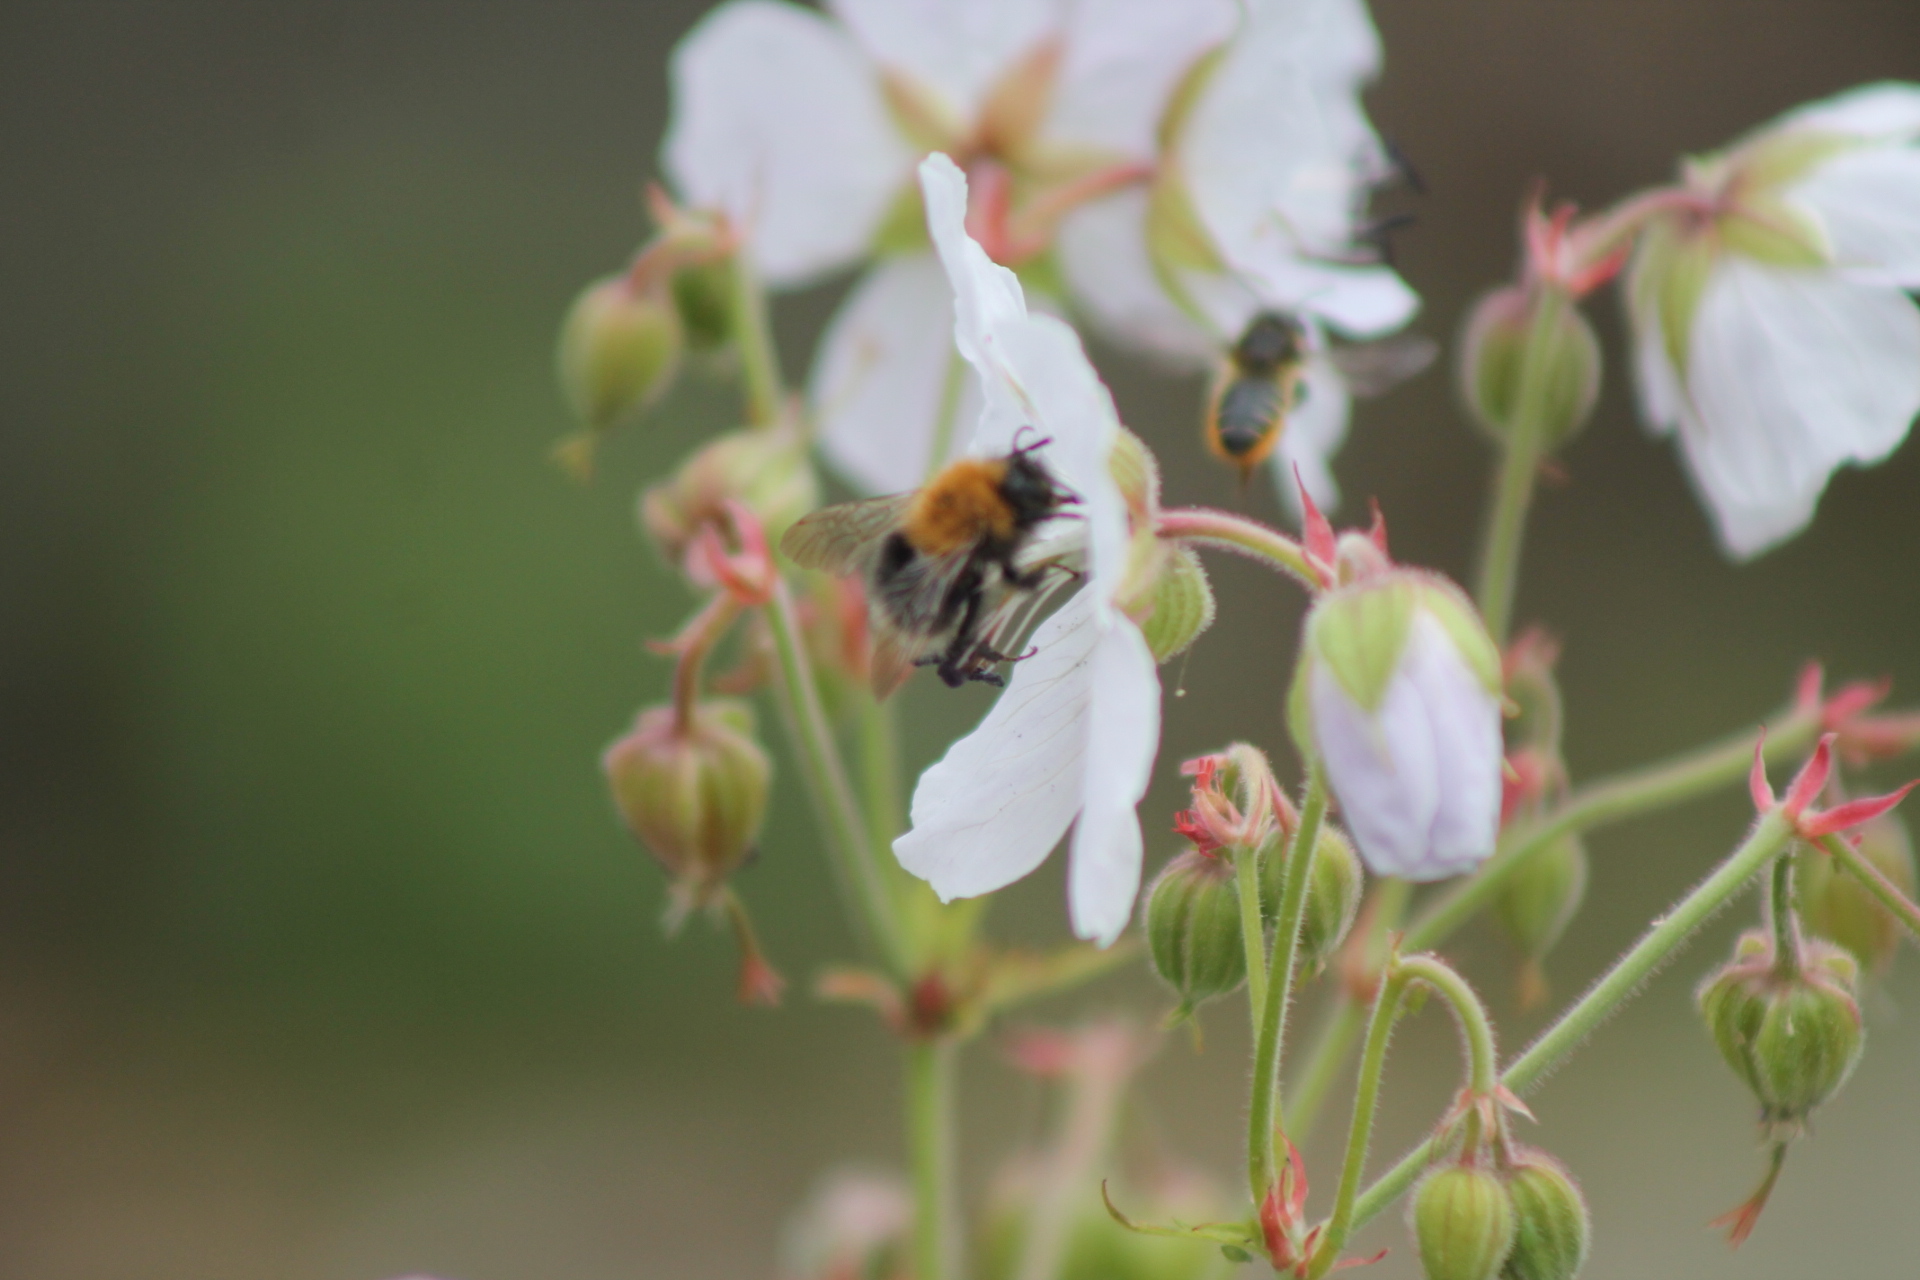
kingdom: Animalia
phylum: Arthropoda
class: Insecta
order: Hymenoptera
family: Apidae
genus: Bombus
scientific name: Bombus hypnorum
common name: New garden bumblebee
